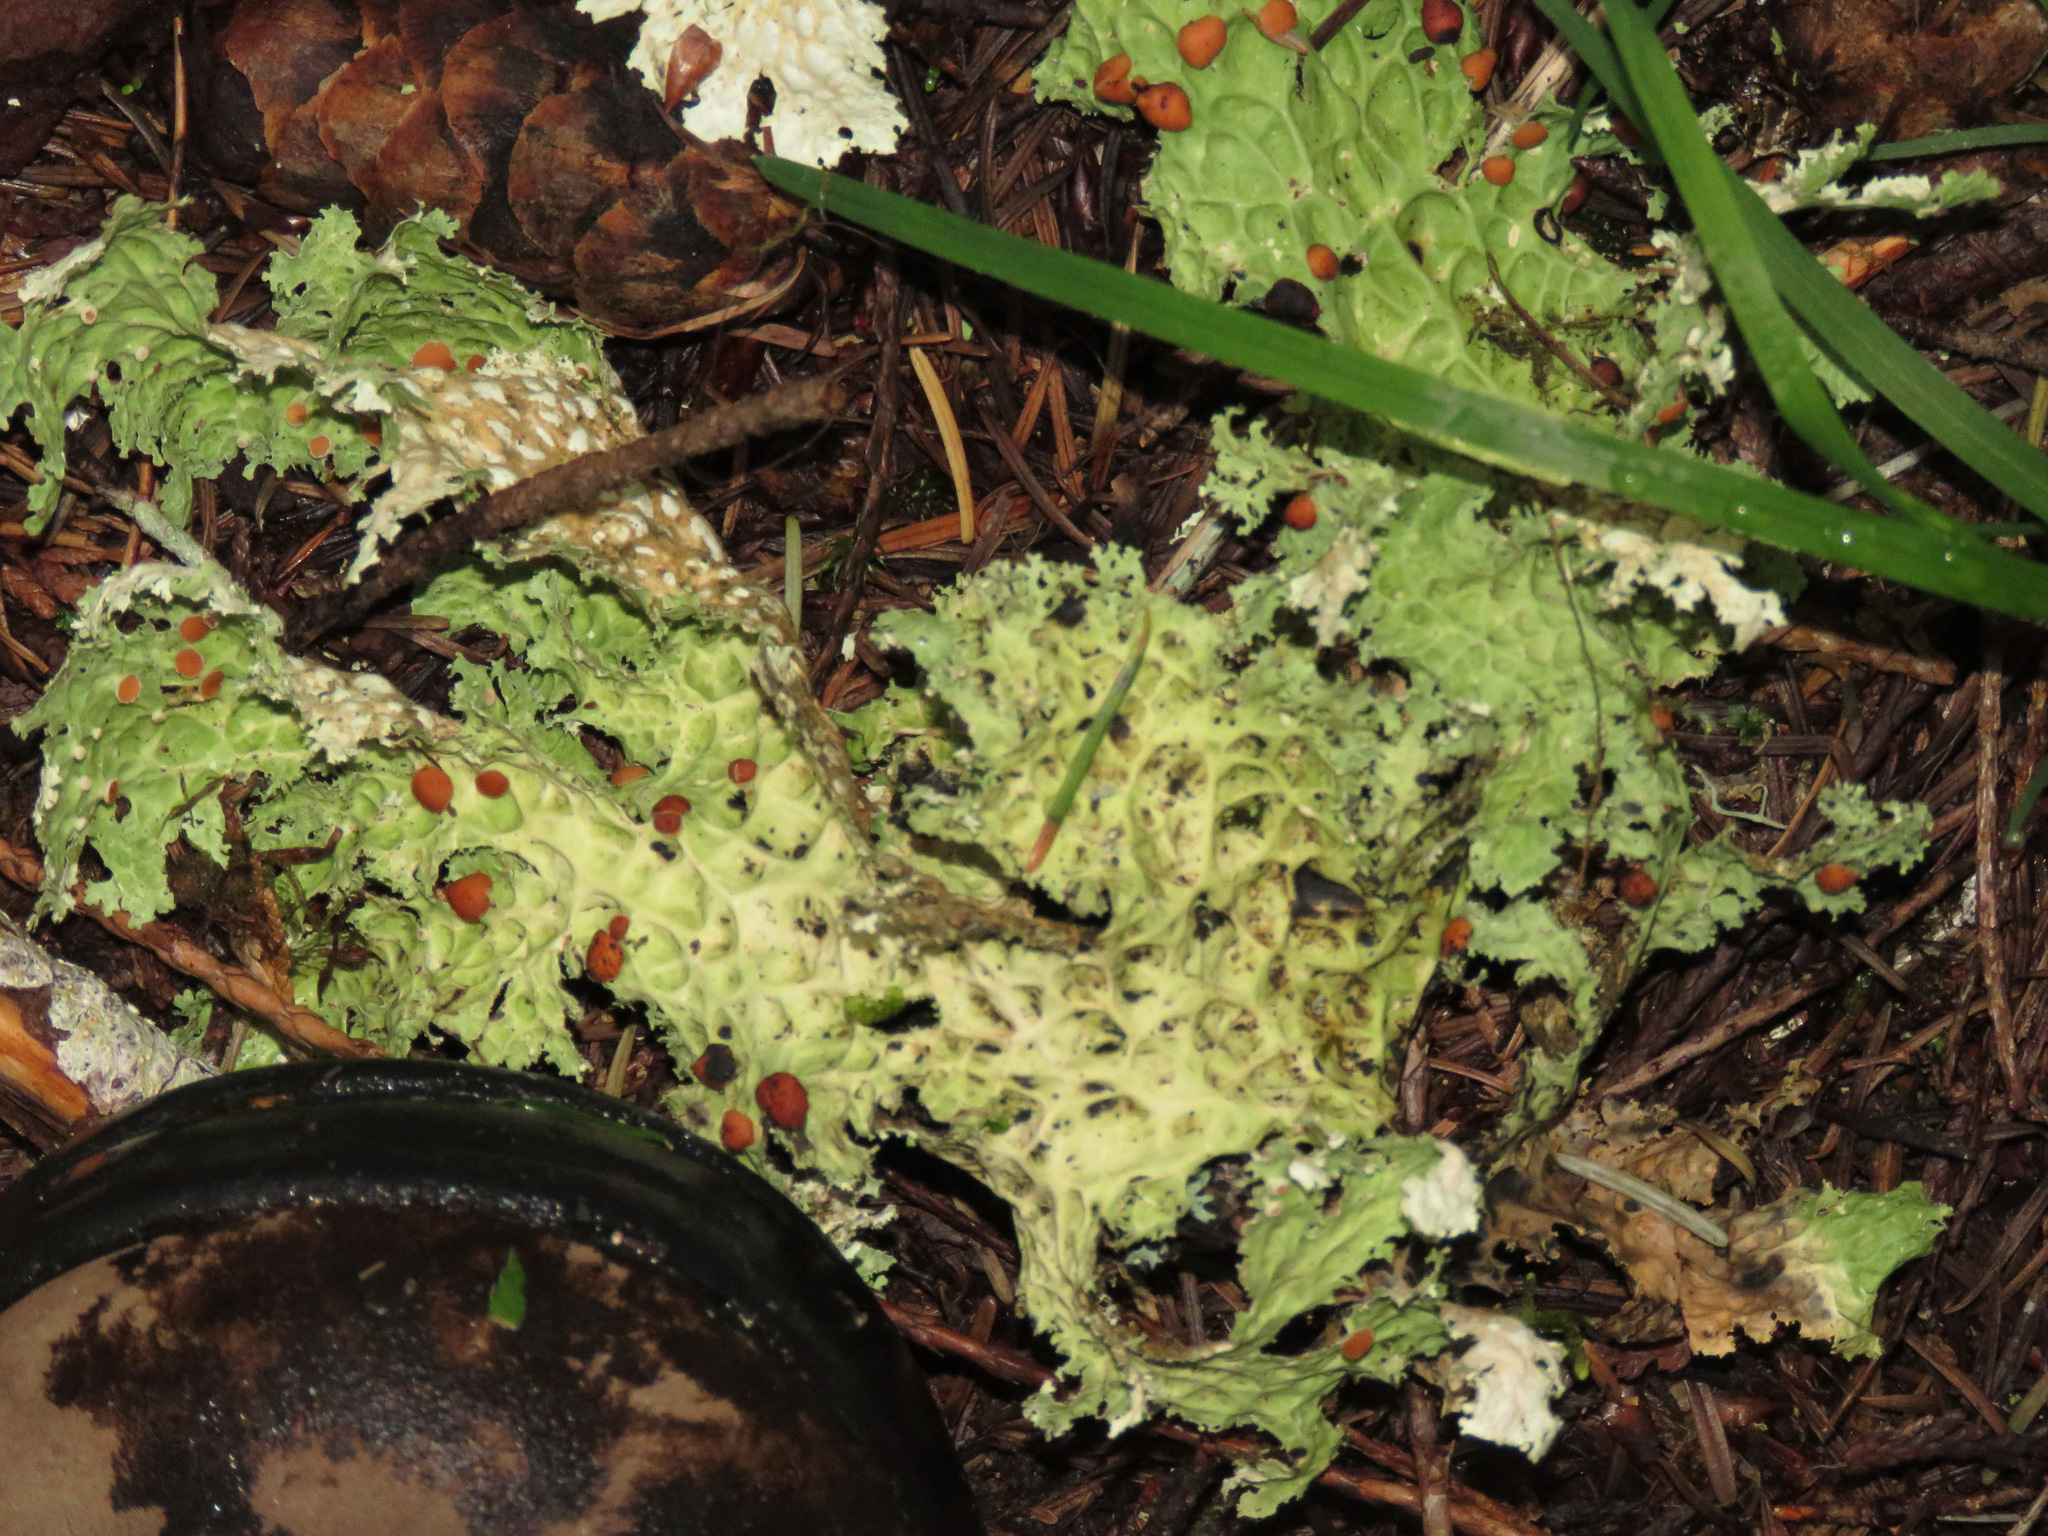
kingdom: Fungi
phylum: Ascomycota
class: Lecanoromycetes
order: Peltigerales
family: Lobariaceae
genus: Lobaria
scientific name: Lobaria oregana
